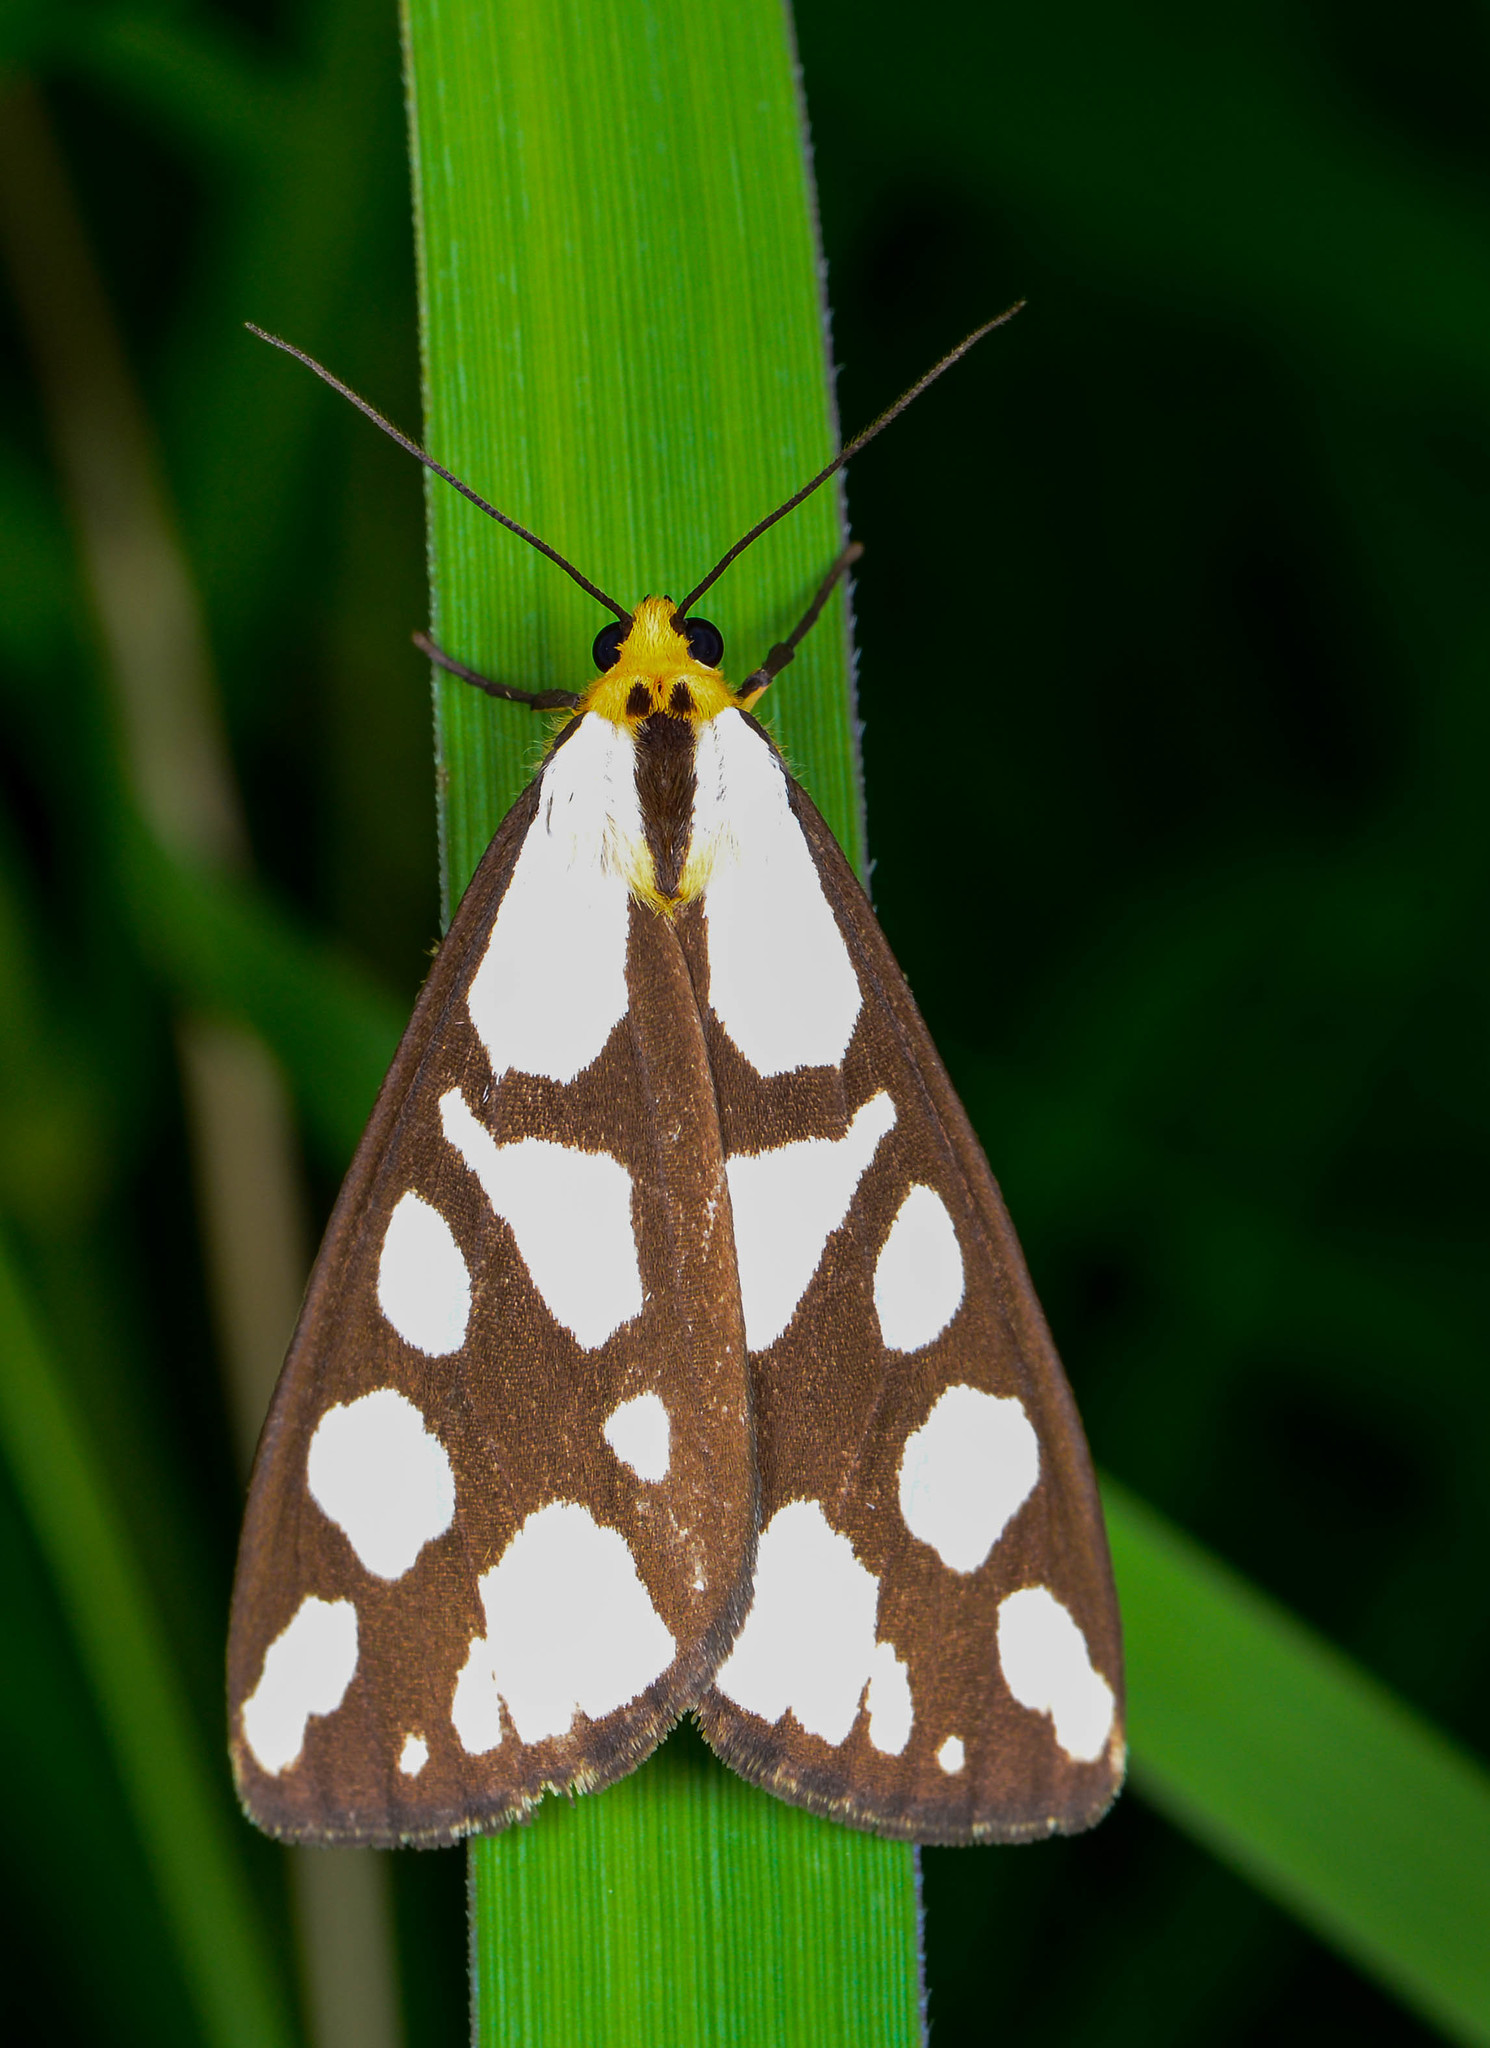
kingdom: Animalia
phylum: Arthropoda
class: Insecta
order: Lepidoptera
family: Erebidae
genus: Haploa
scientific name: Haploa confusa
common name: Confused haploa moth
